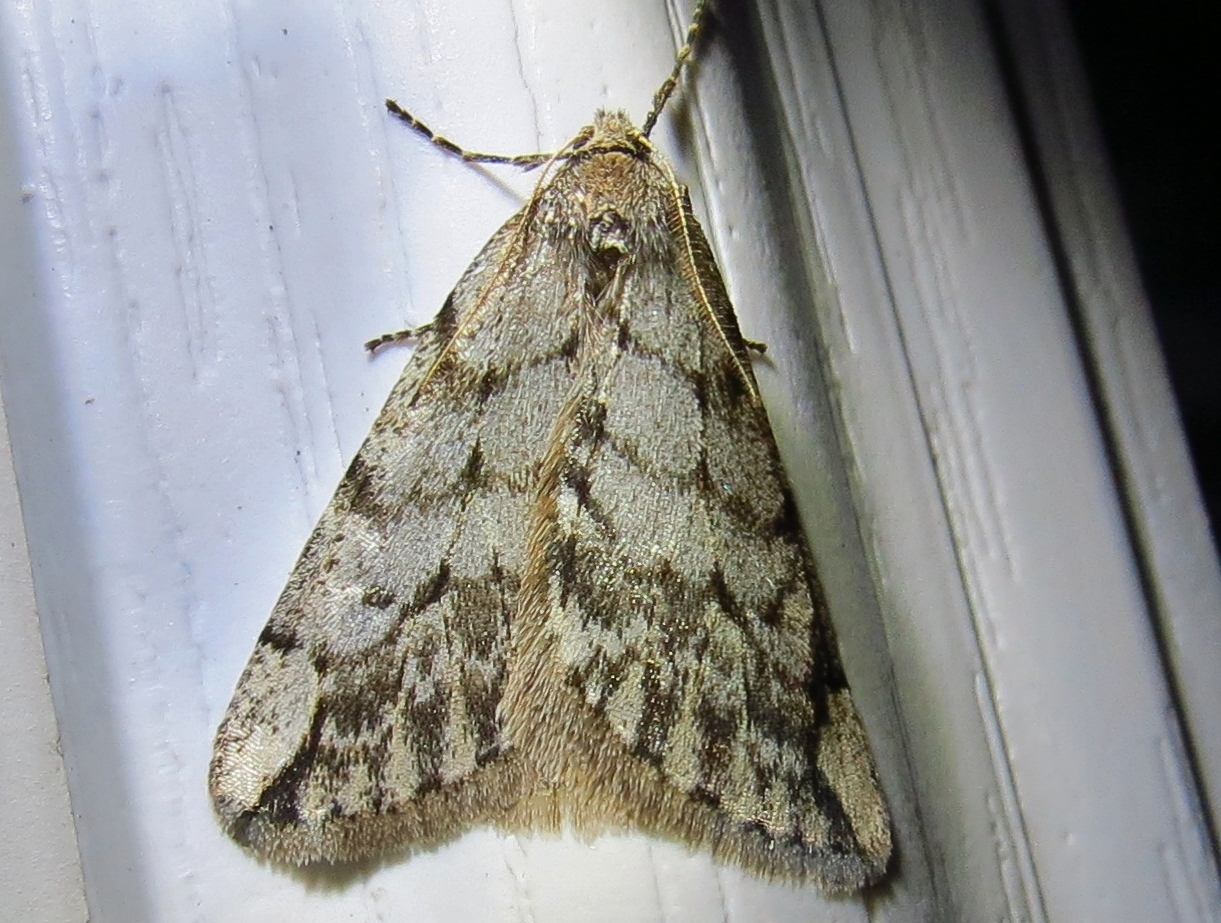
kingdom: Animalia
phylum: Arthropoda
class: Insecta
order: Lepidoptera
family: Geometridae
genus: Paleacrita
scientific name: Paleacrita vernata
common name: Spring cankerworm
